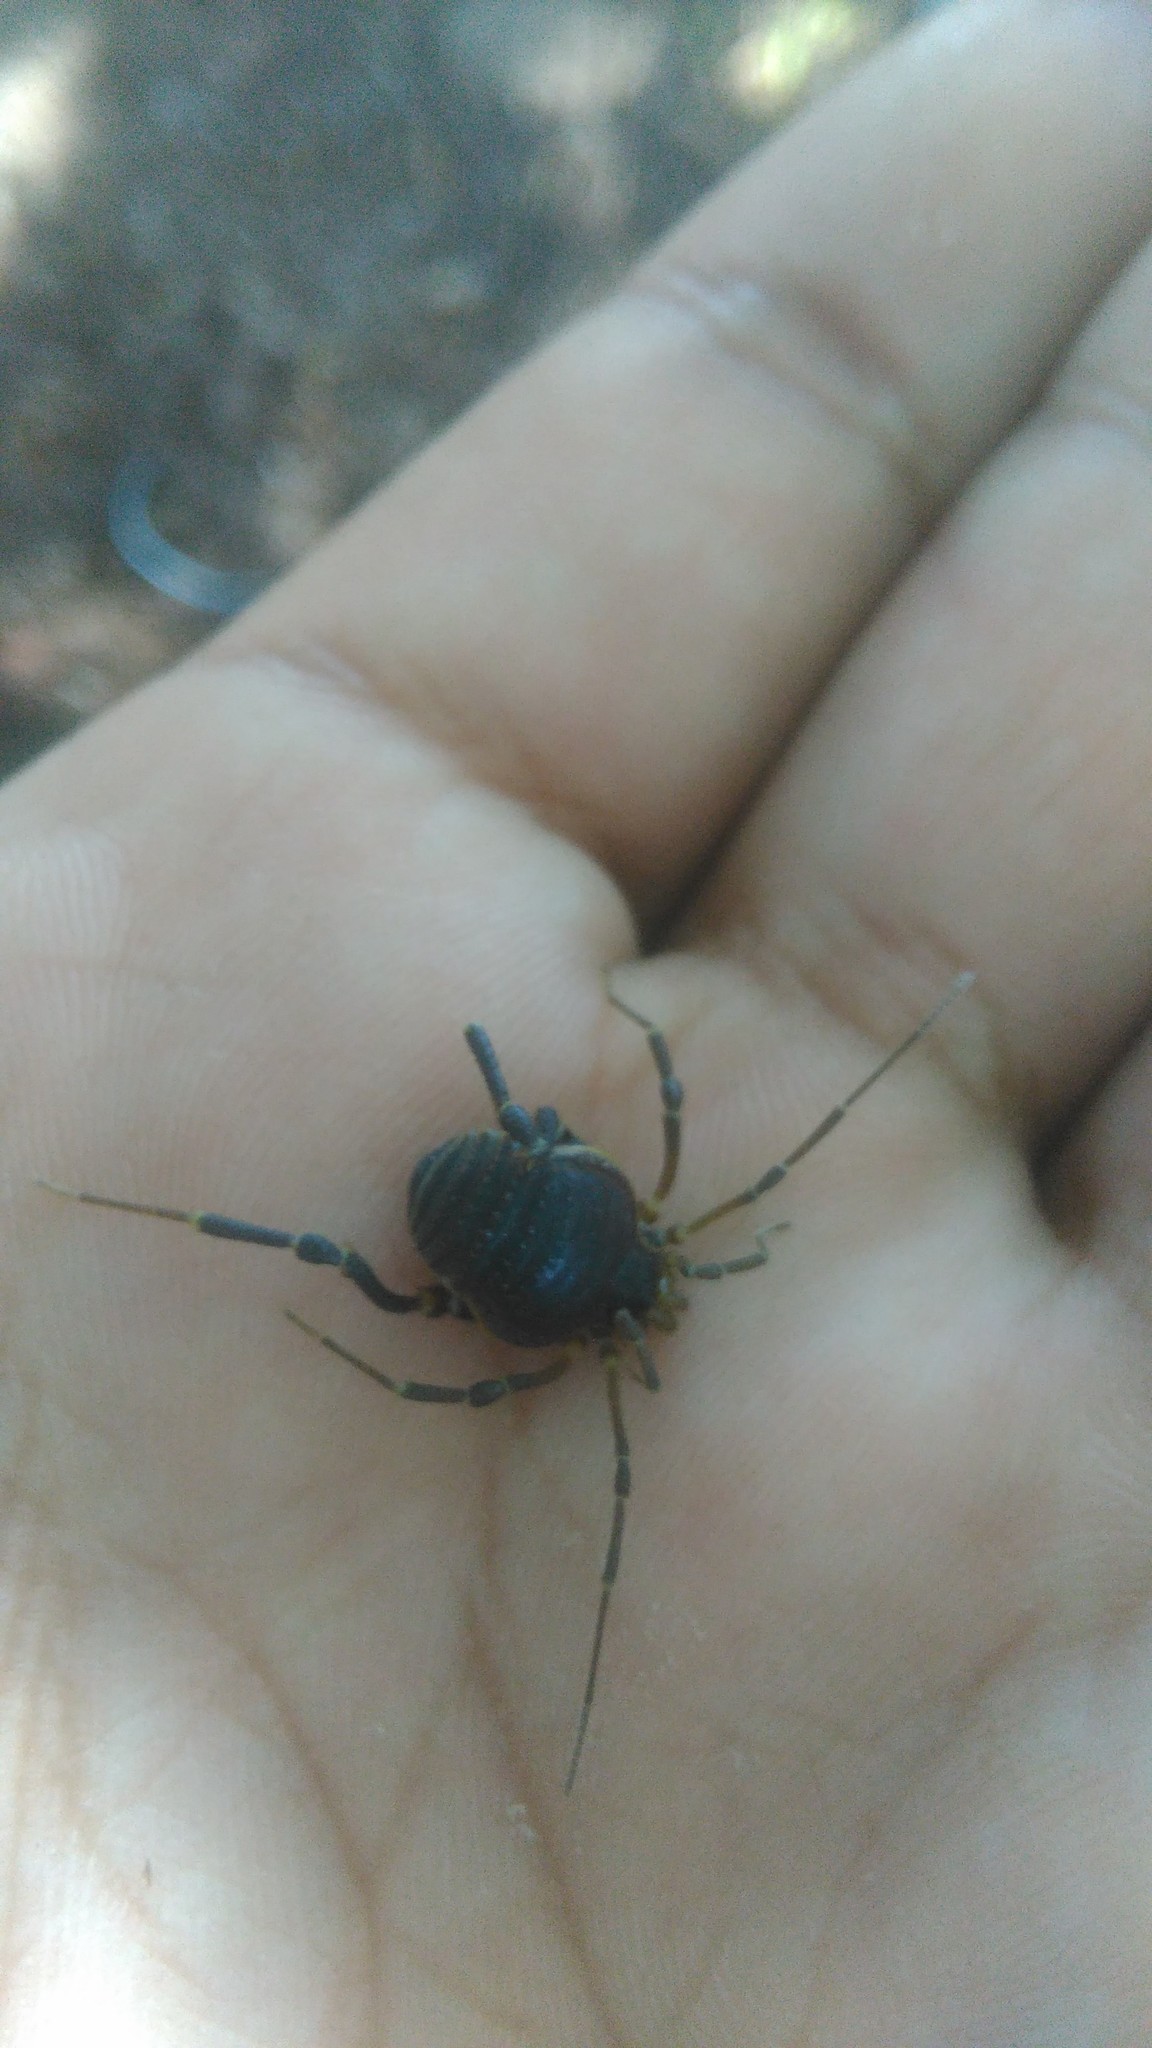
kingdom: Animalia
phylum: Arthropoda
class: Arachnida
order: Opiliones
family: Gonyleptidae
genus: Acanthopachylus
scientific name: Acanthopachylus robustus
